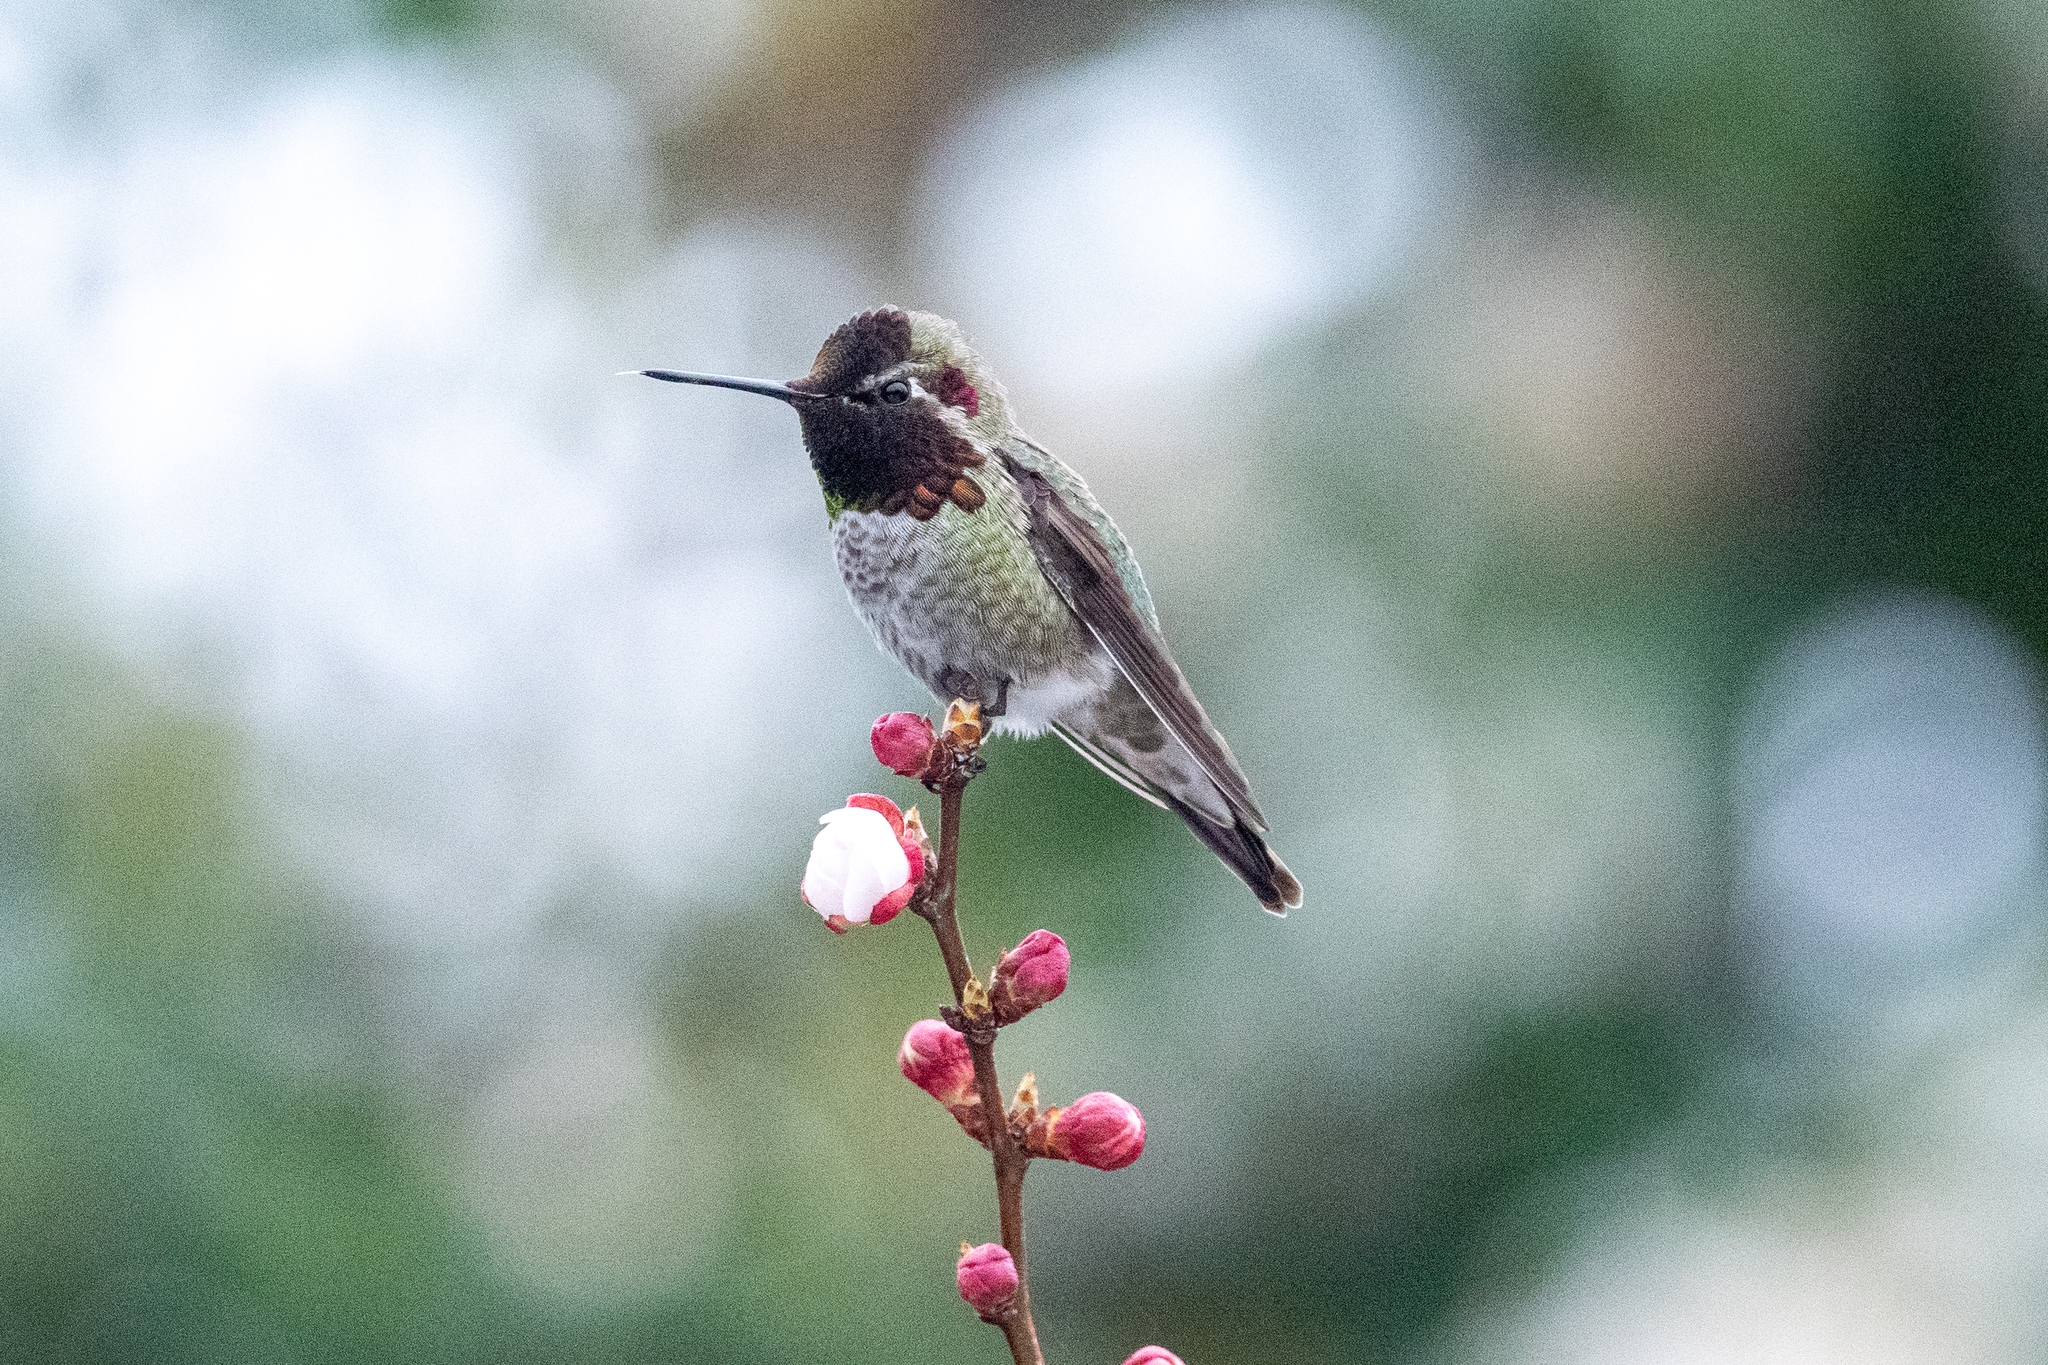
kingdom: Animalia
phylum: Chordata
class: Aves
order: Apodiformes
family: Trochilidae
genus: Calypte
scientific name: Calypte anna
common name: Anna's hummingbird
